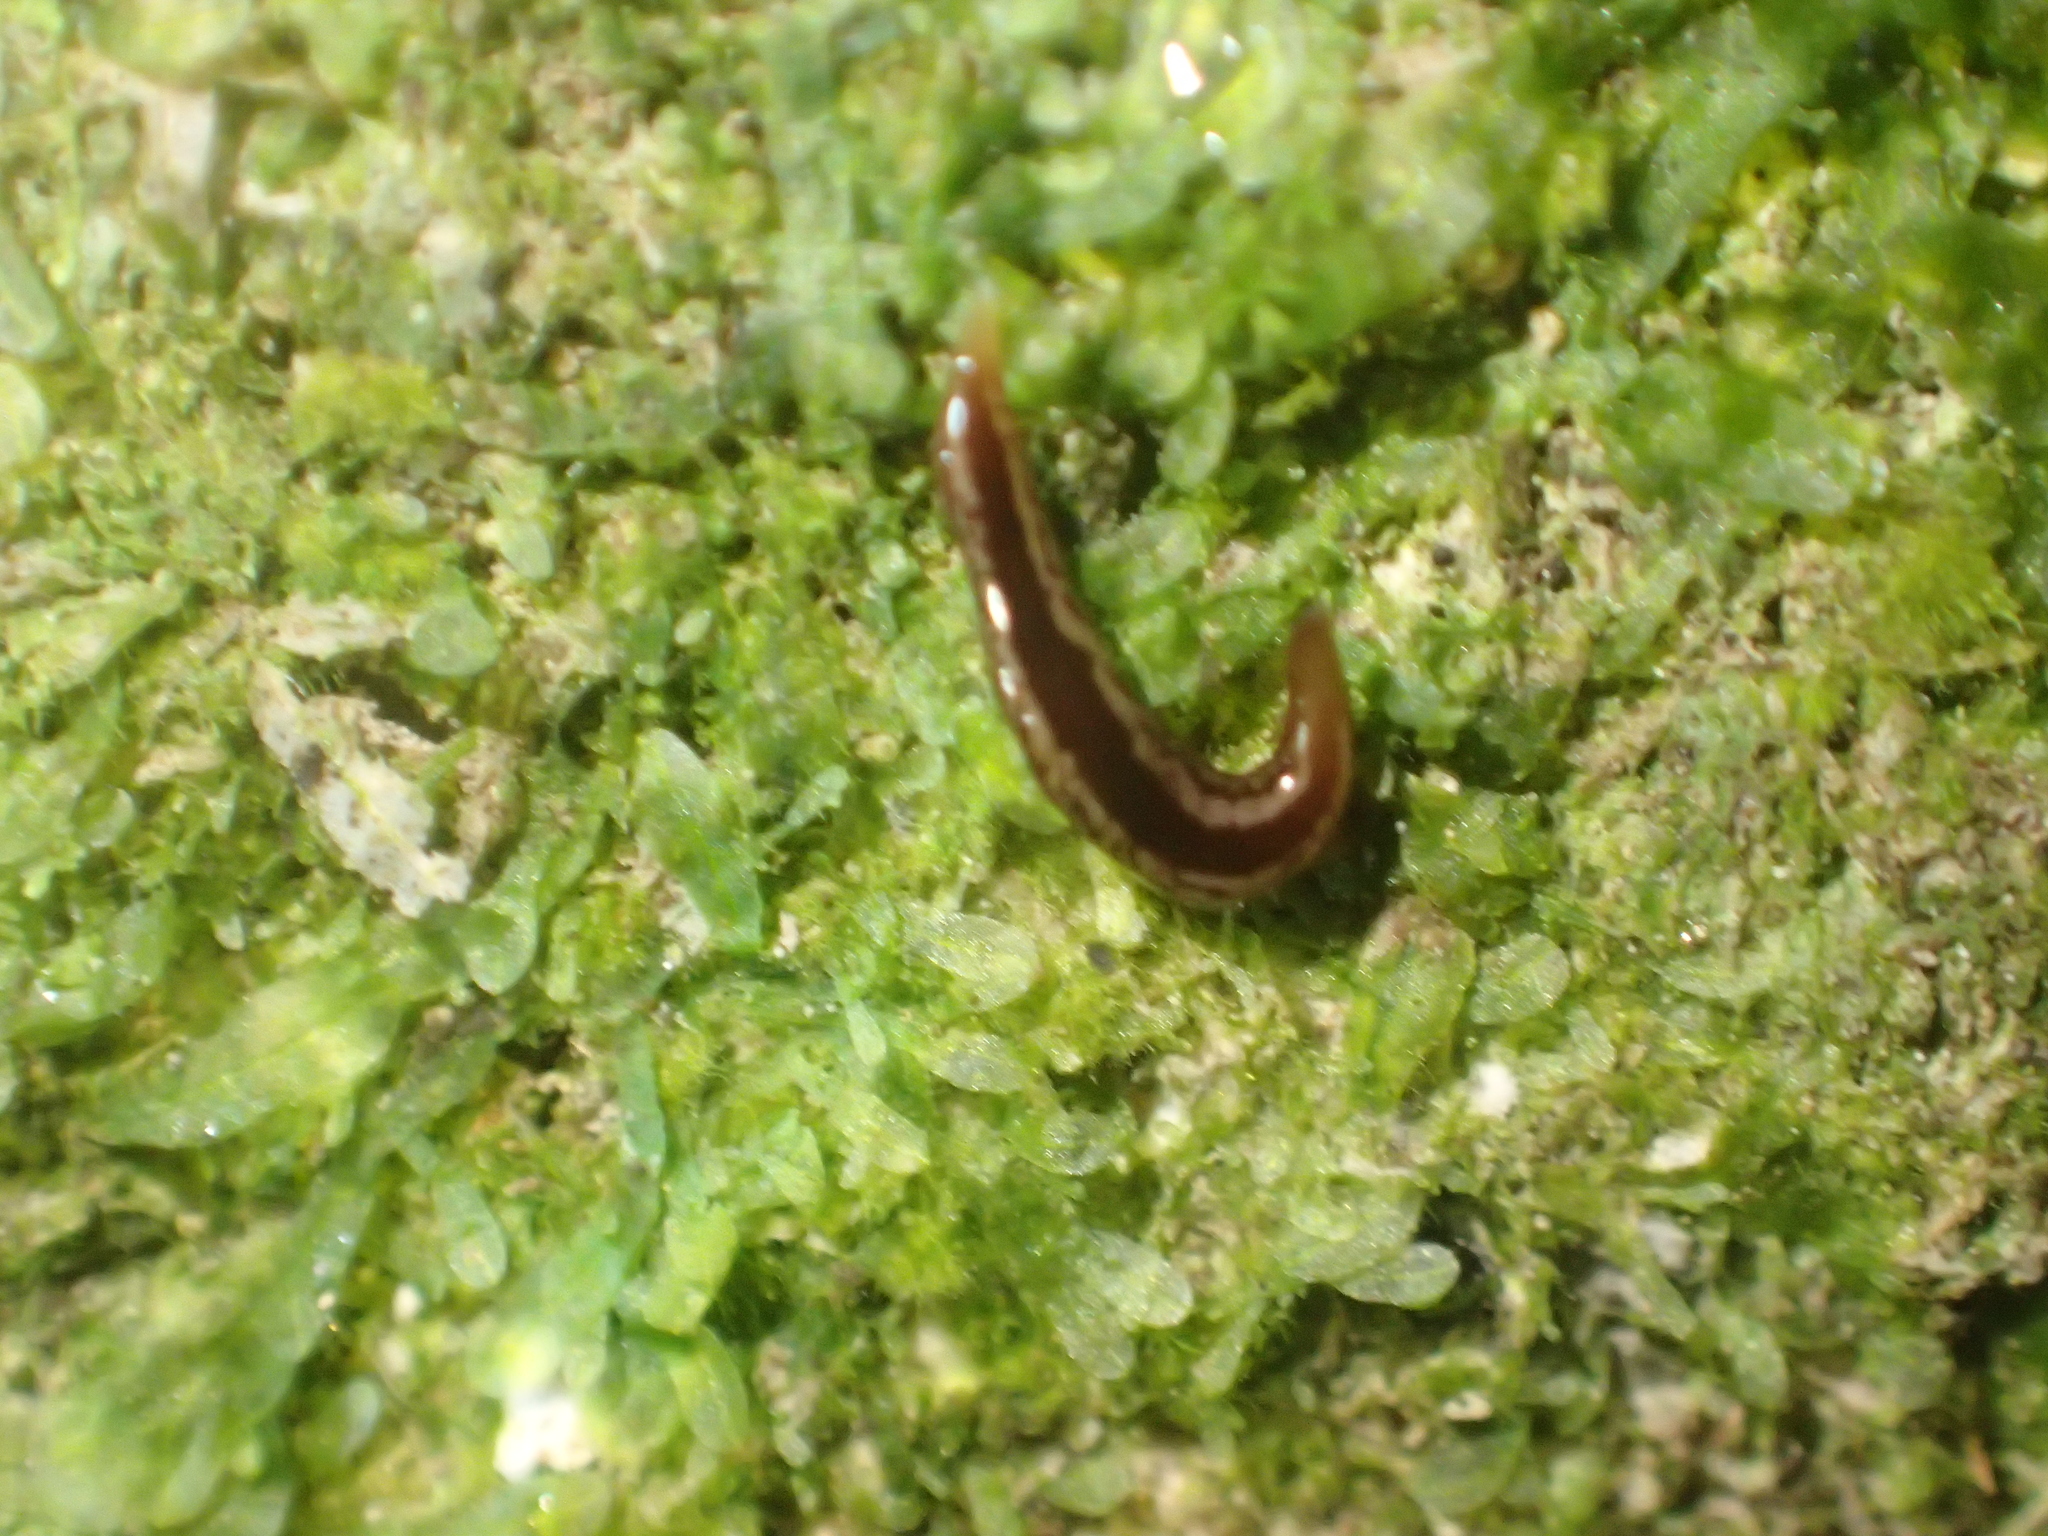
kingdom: Animalia
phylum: Platyhelminthes
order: Tricladida
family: Geoplanidae
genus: Australopacifica
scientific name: Australopacifica
